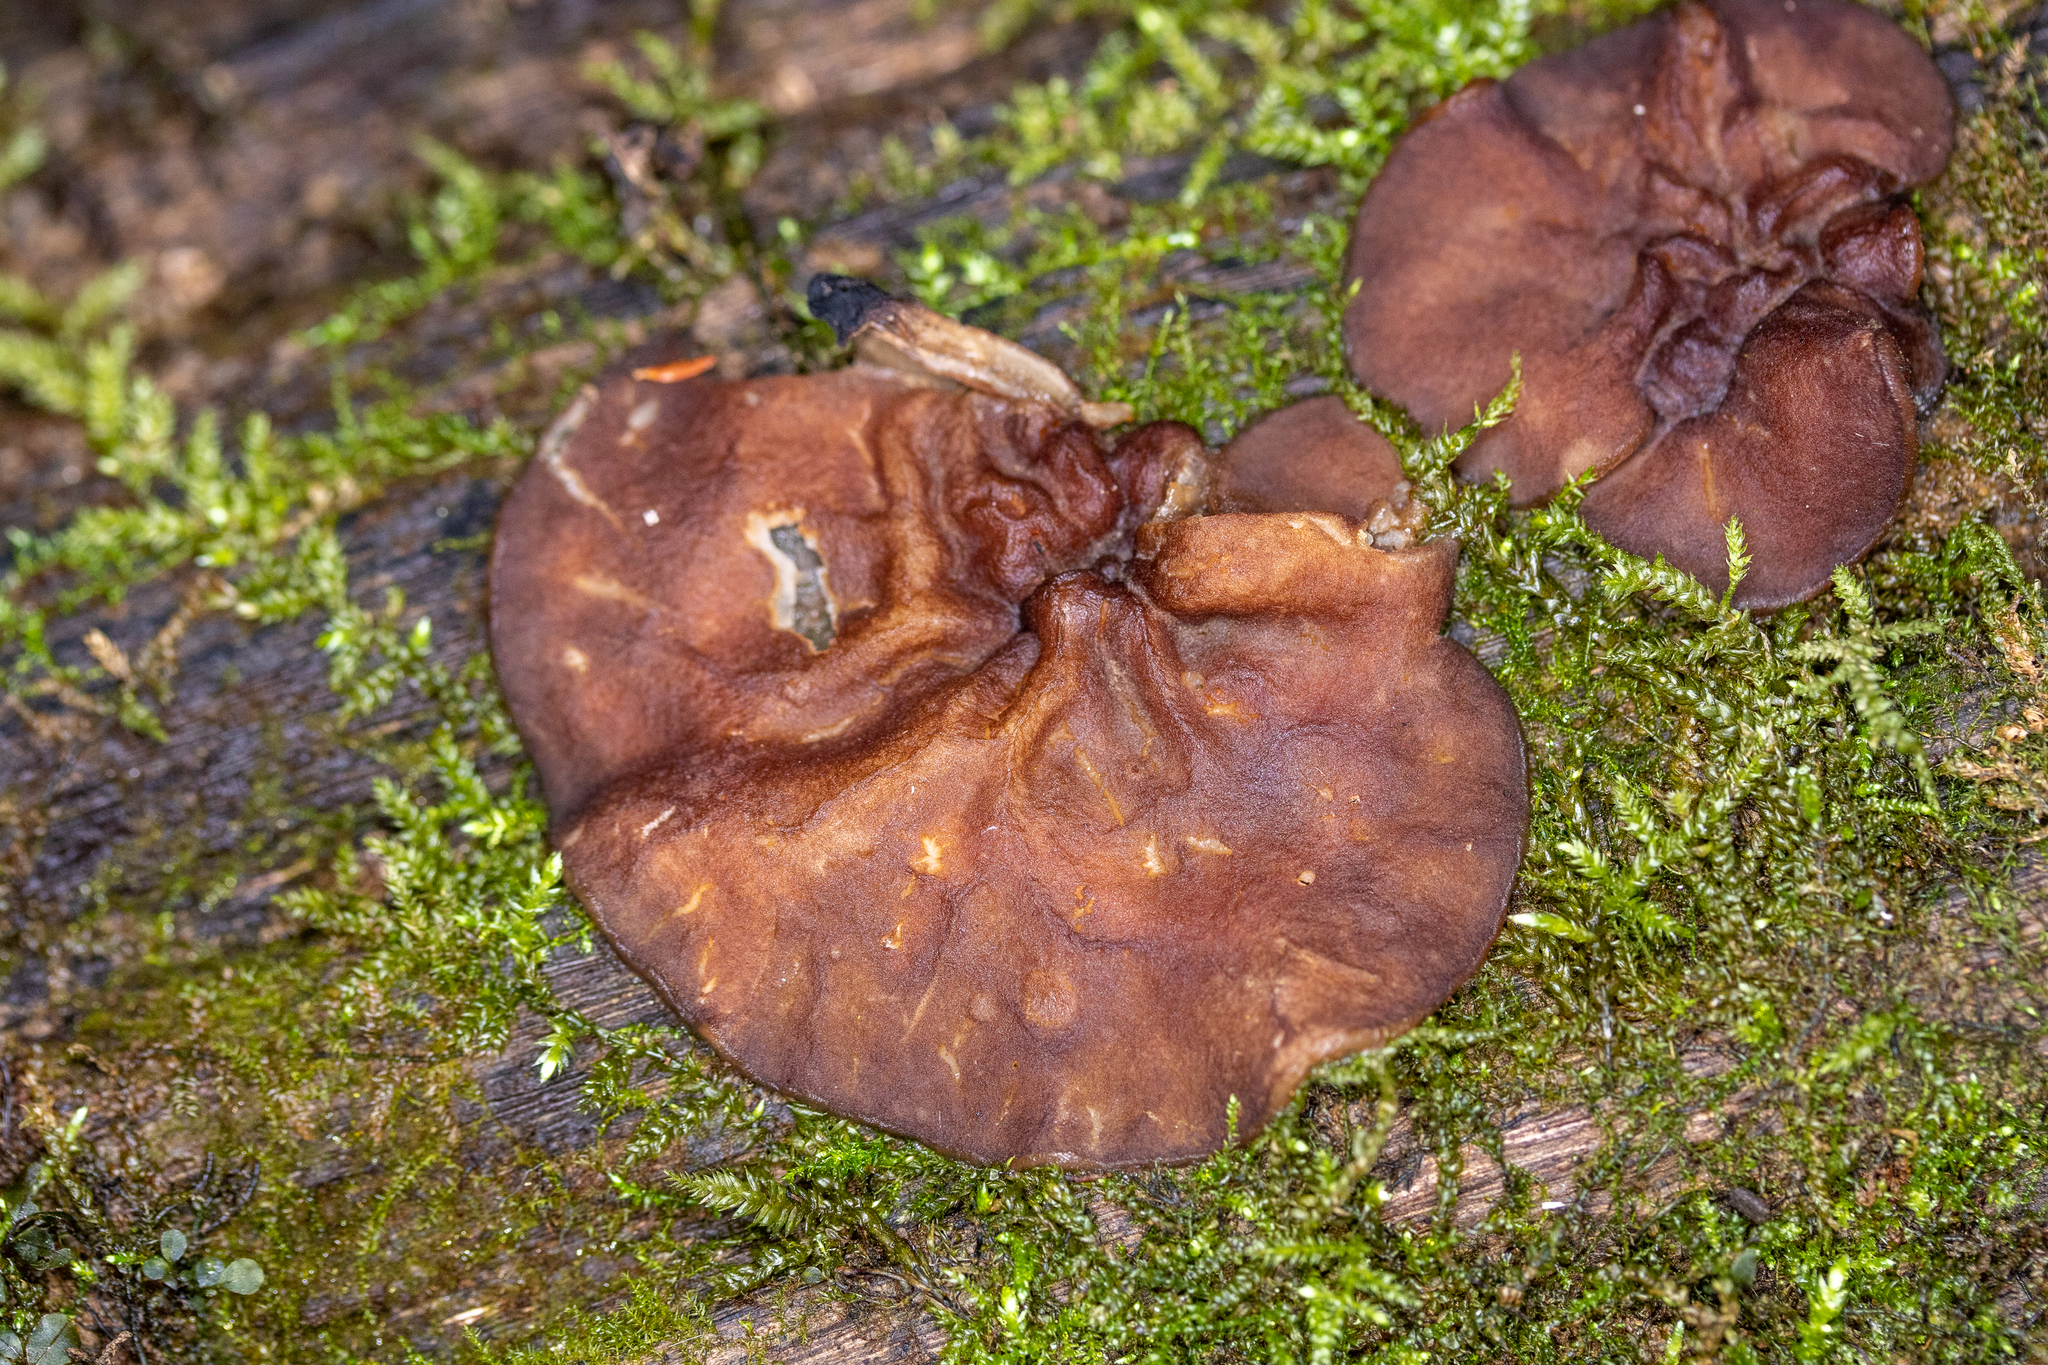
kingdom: Fungi
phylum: Ascomycota
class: Pezizomycetes
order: Pezizales
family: Pezizaceae
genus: Pachyella
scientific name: Pachyella clypeata
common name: Copper penny fungus
